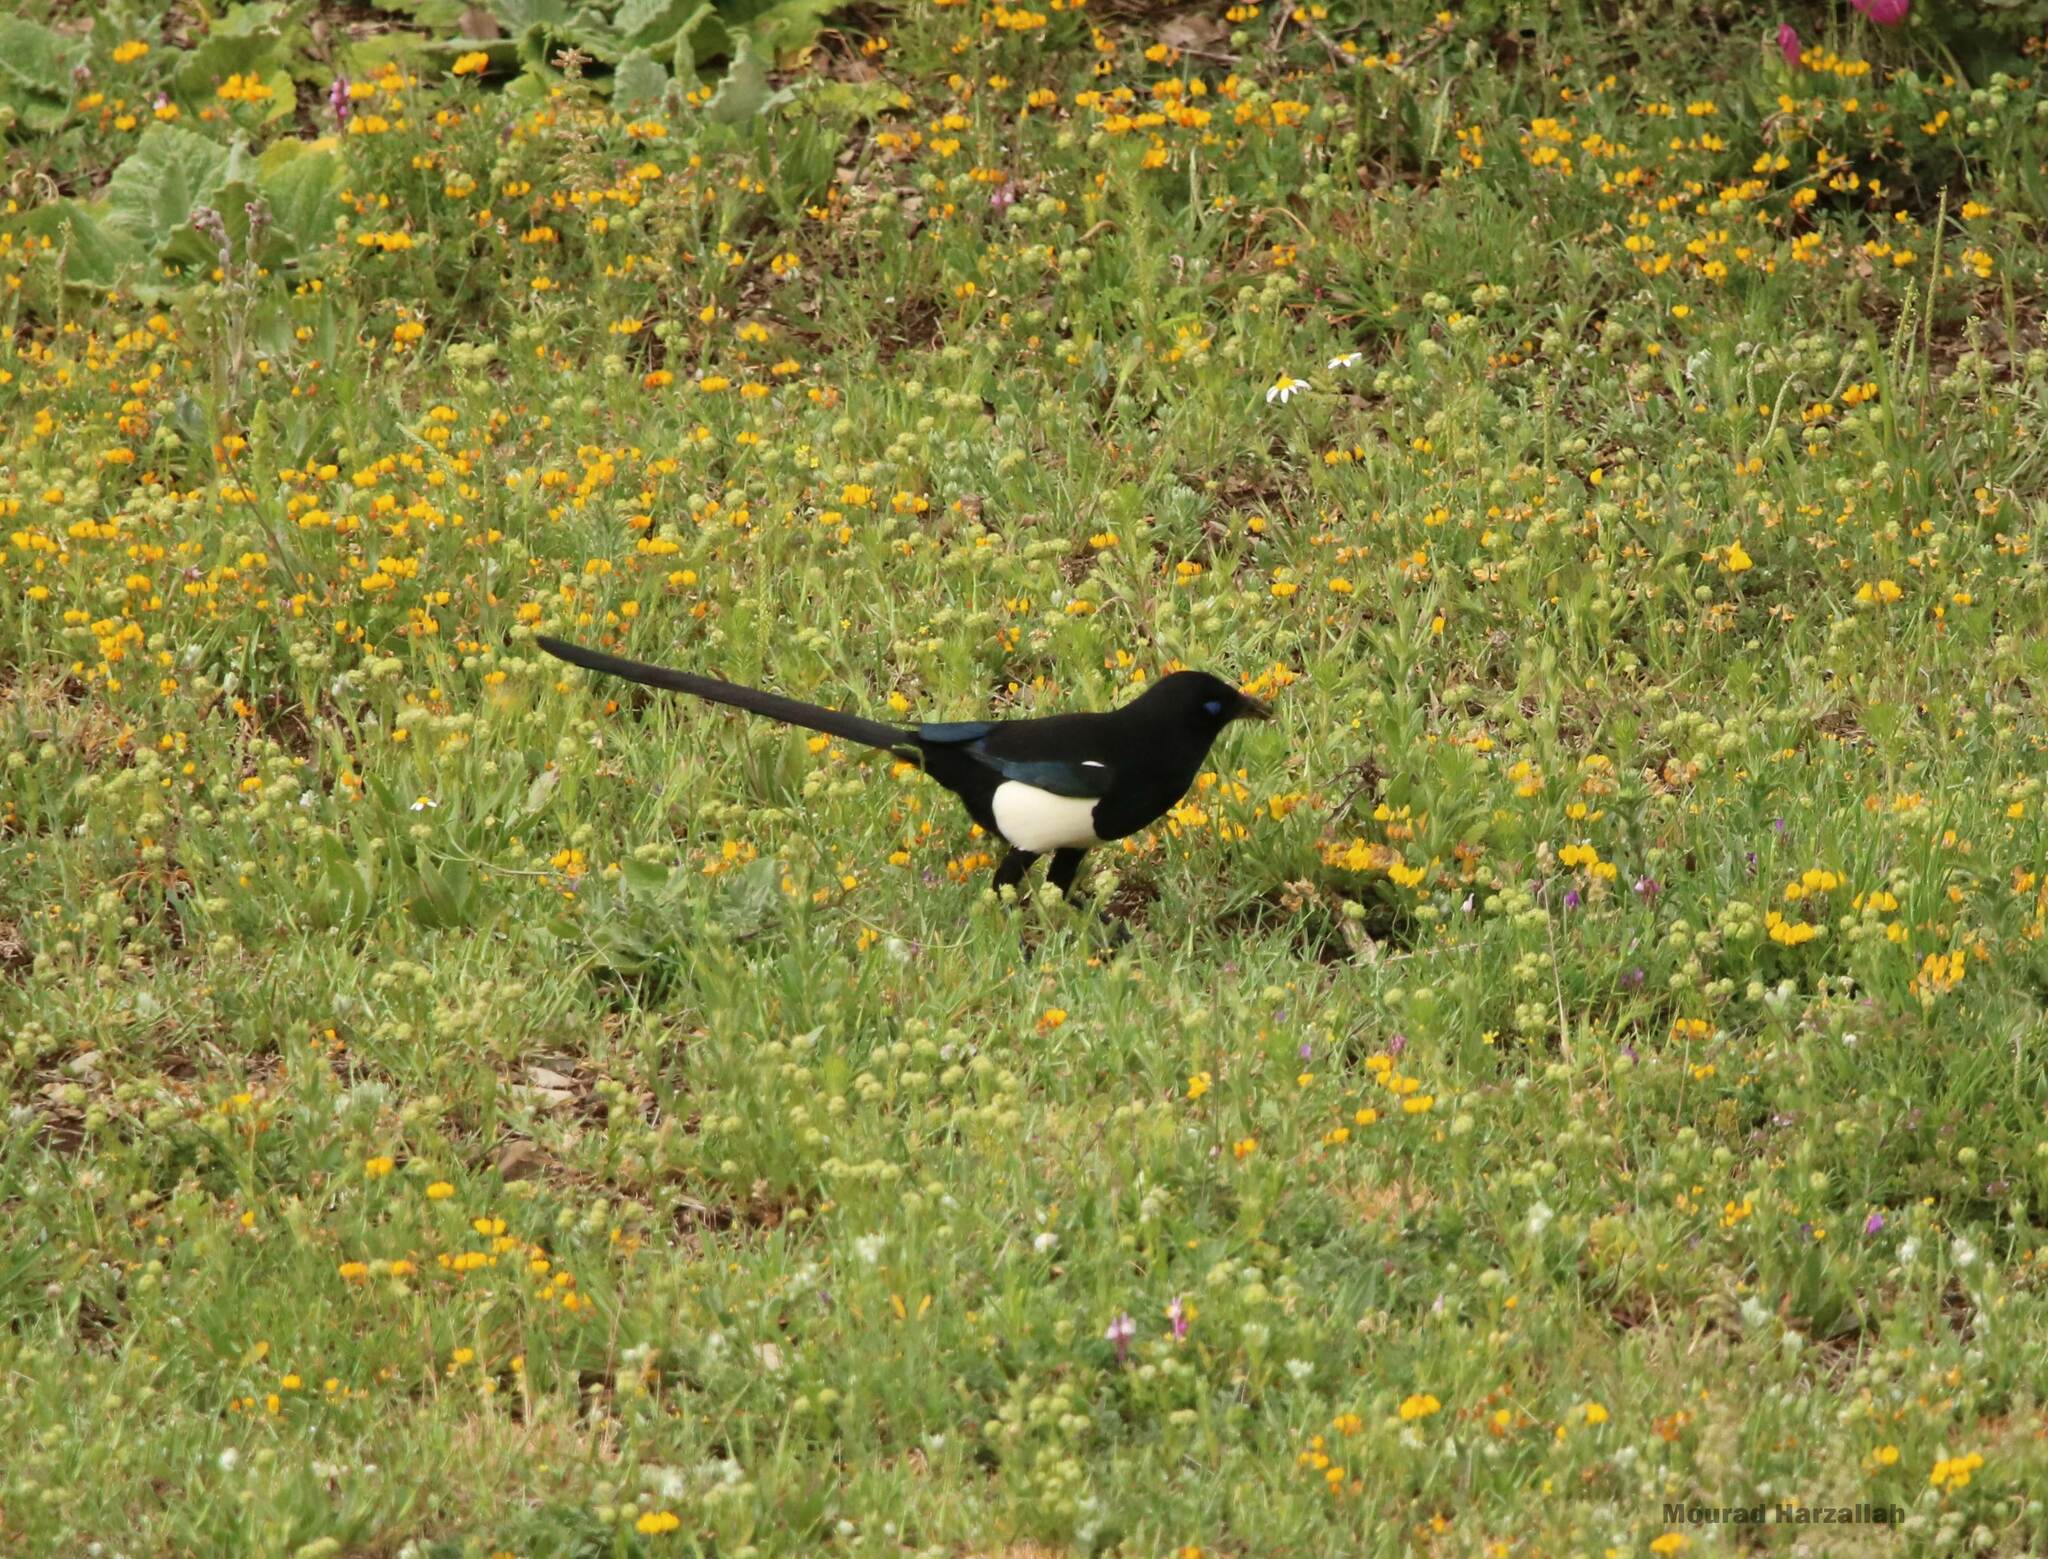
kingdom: Animalia
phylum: Chordata
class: Aves
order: Passeriformes
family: Corvidae
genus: Pica
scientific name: Pica mauritanica
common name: Maghreb magpie
